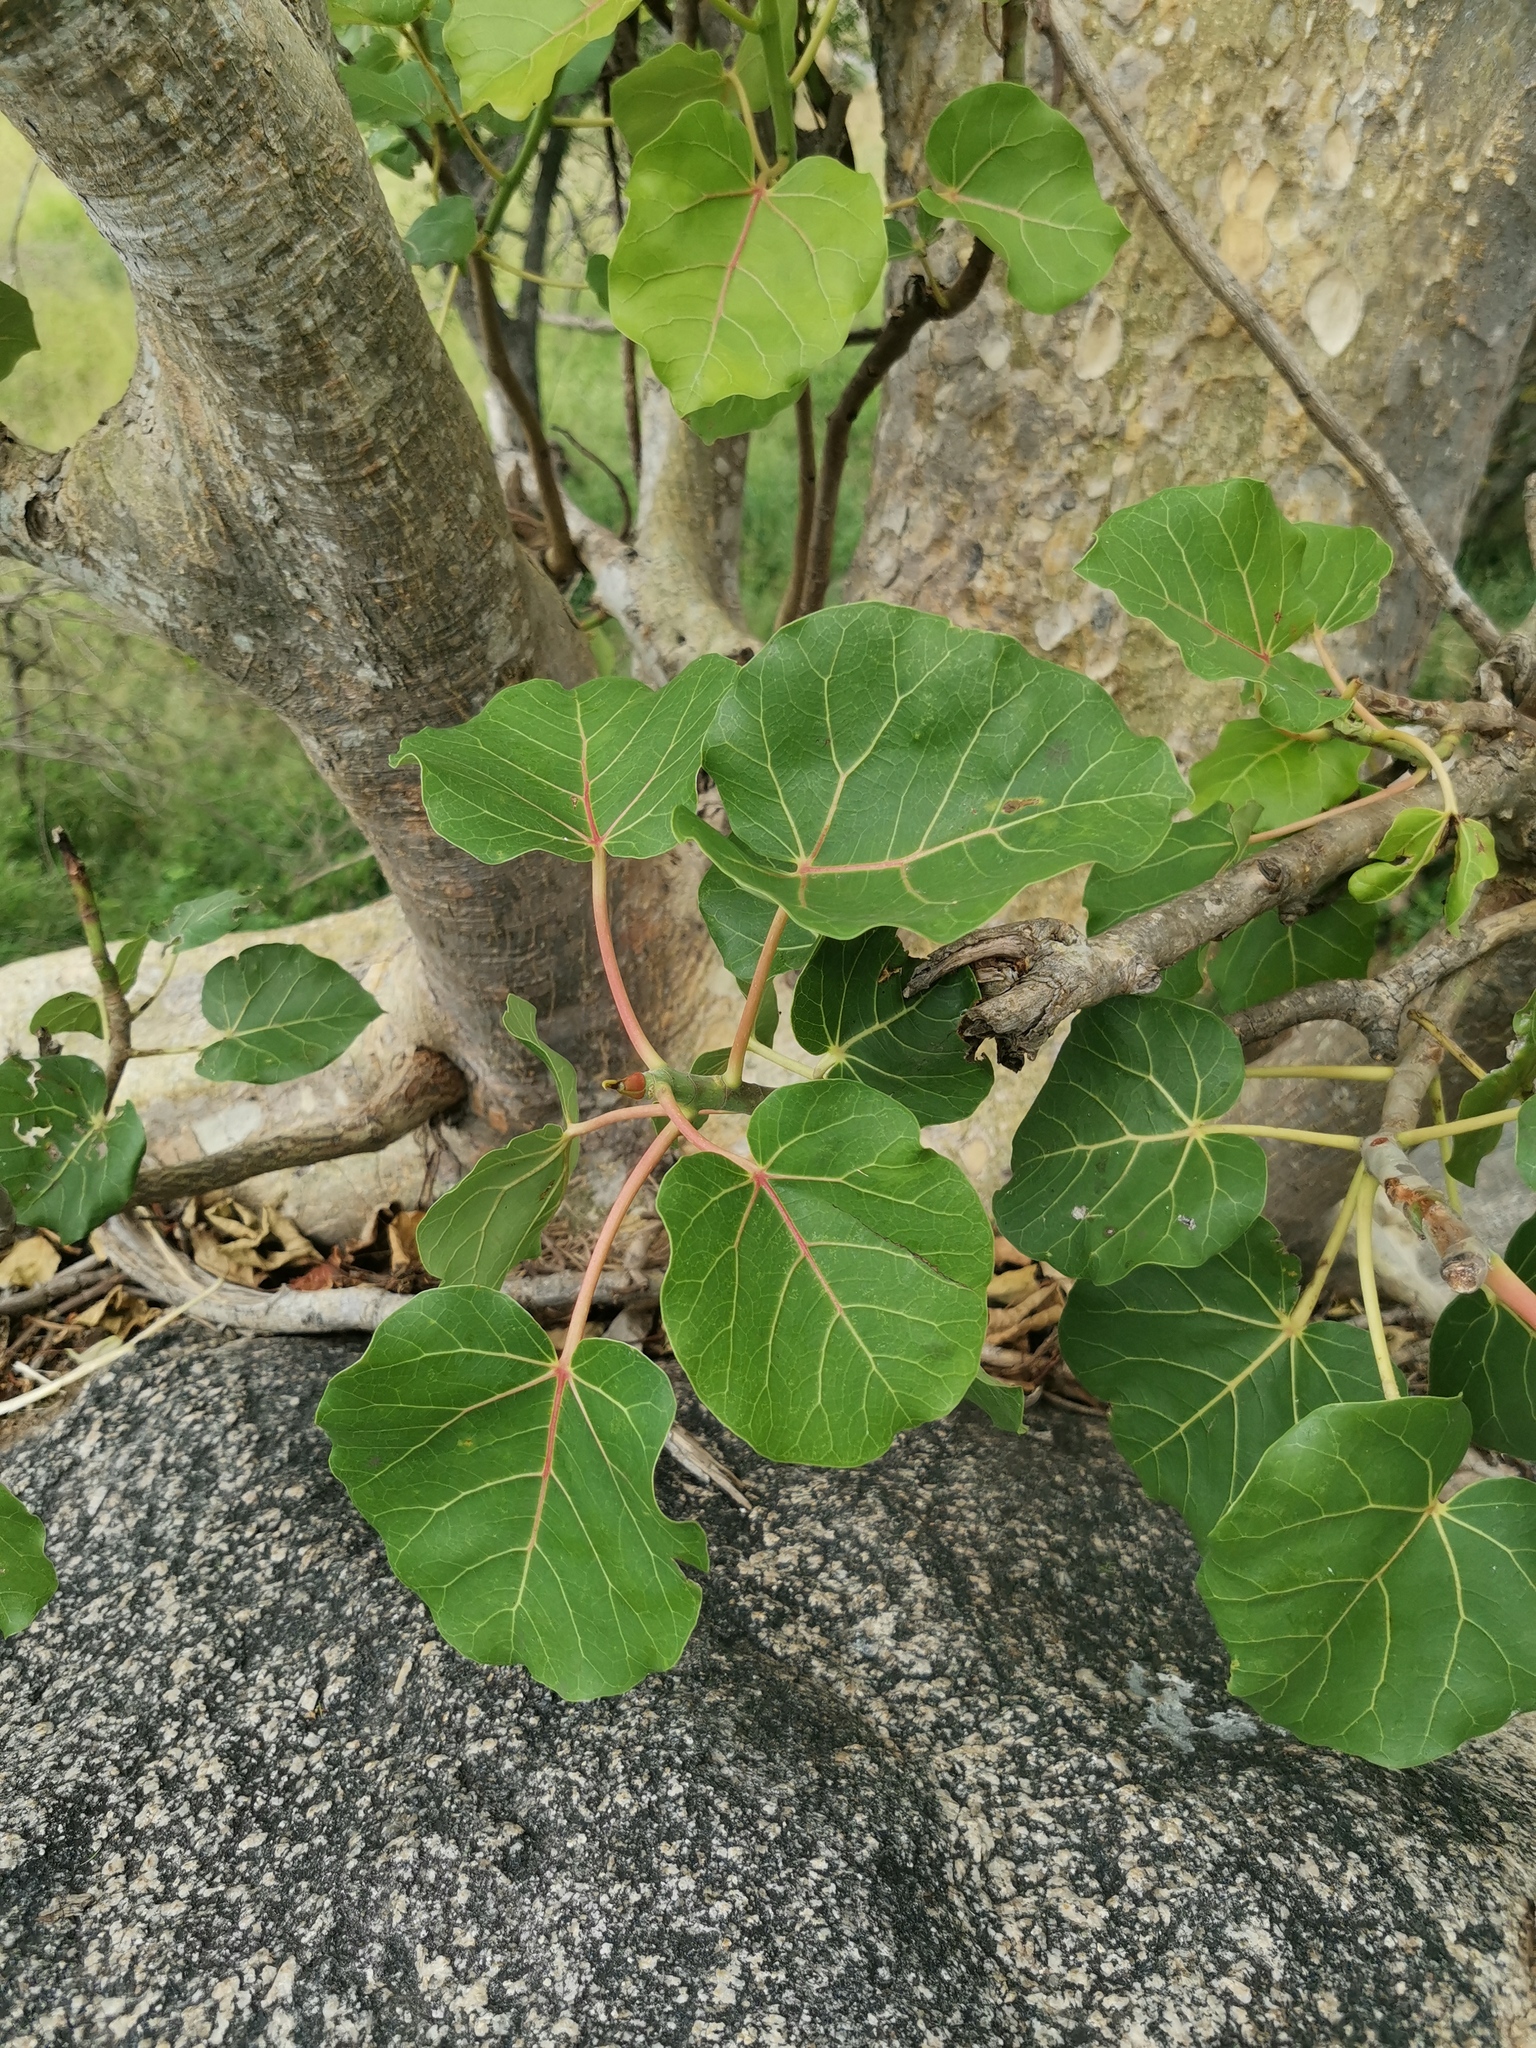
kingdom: Plantae
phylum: Tracheophyta
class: Magnoliopsida
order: Rosales
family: Moraceae
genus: Ficus
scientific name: Ficus abutilifolia
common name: Large-leaved rock fig
